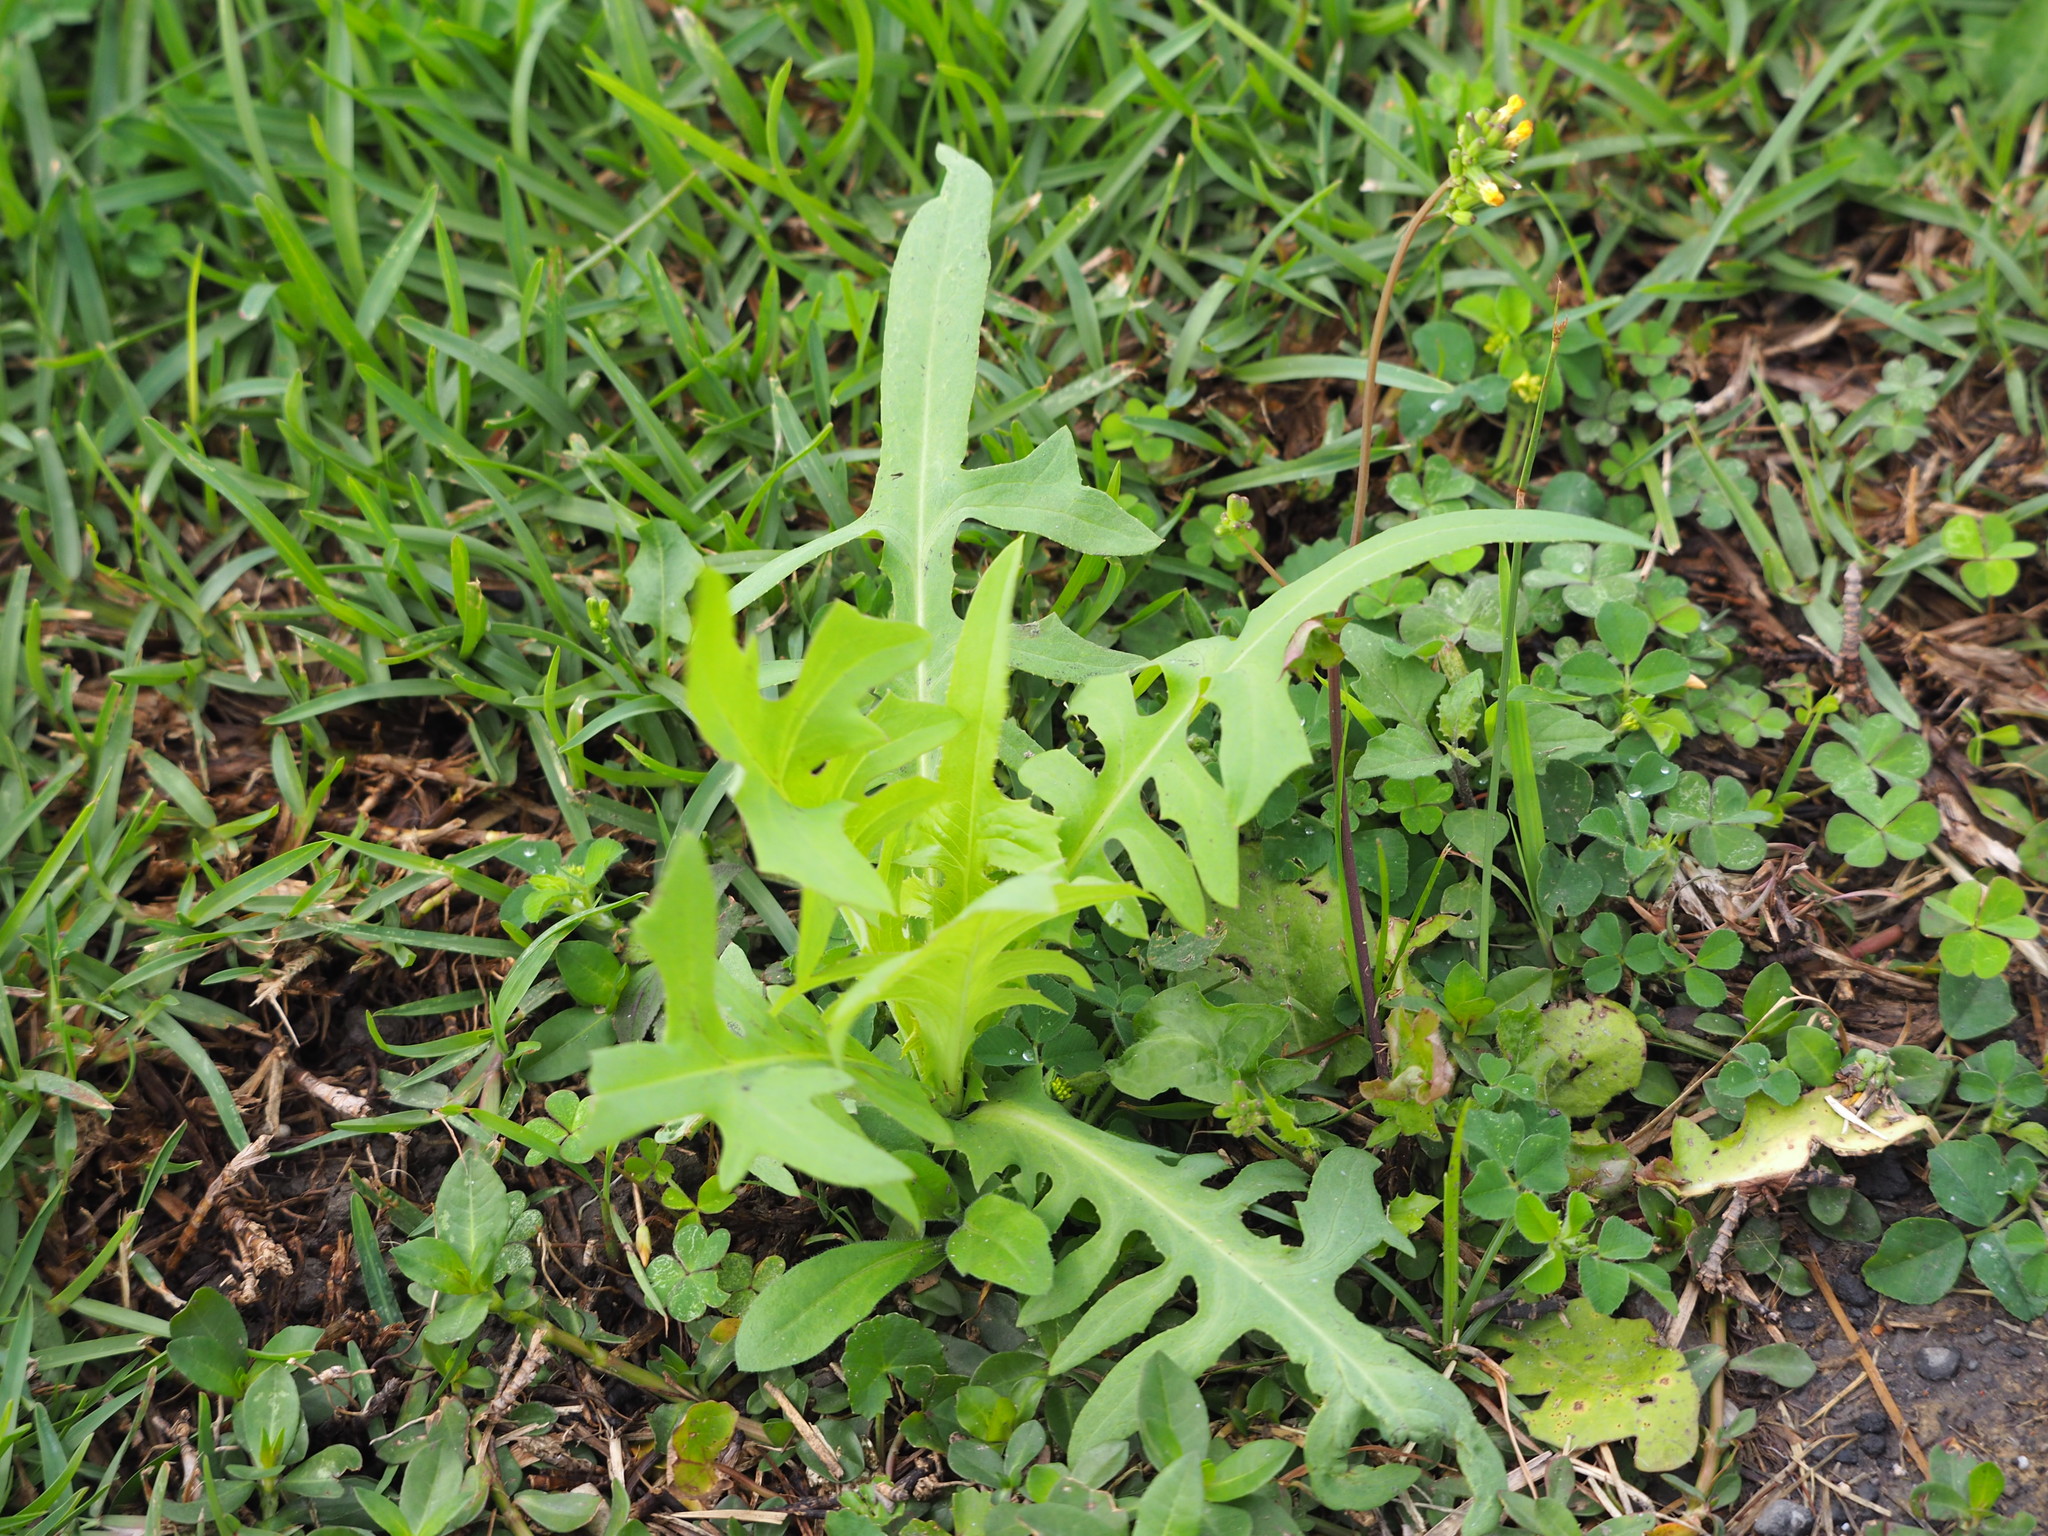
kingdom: Plantae
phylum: Tracheophyta
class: Magnoliopsida
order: Asterales
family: Asteraceae
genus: Lactuca
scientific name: Lactuca indica
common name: Wild lettuce
